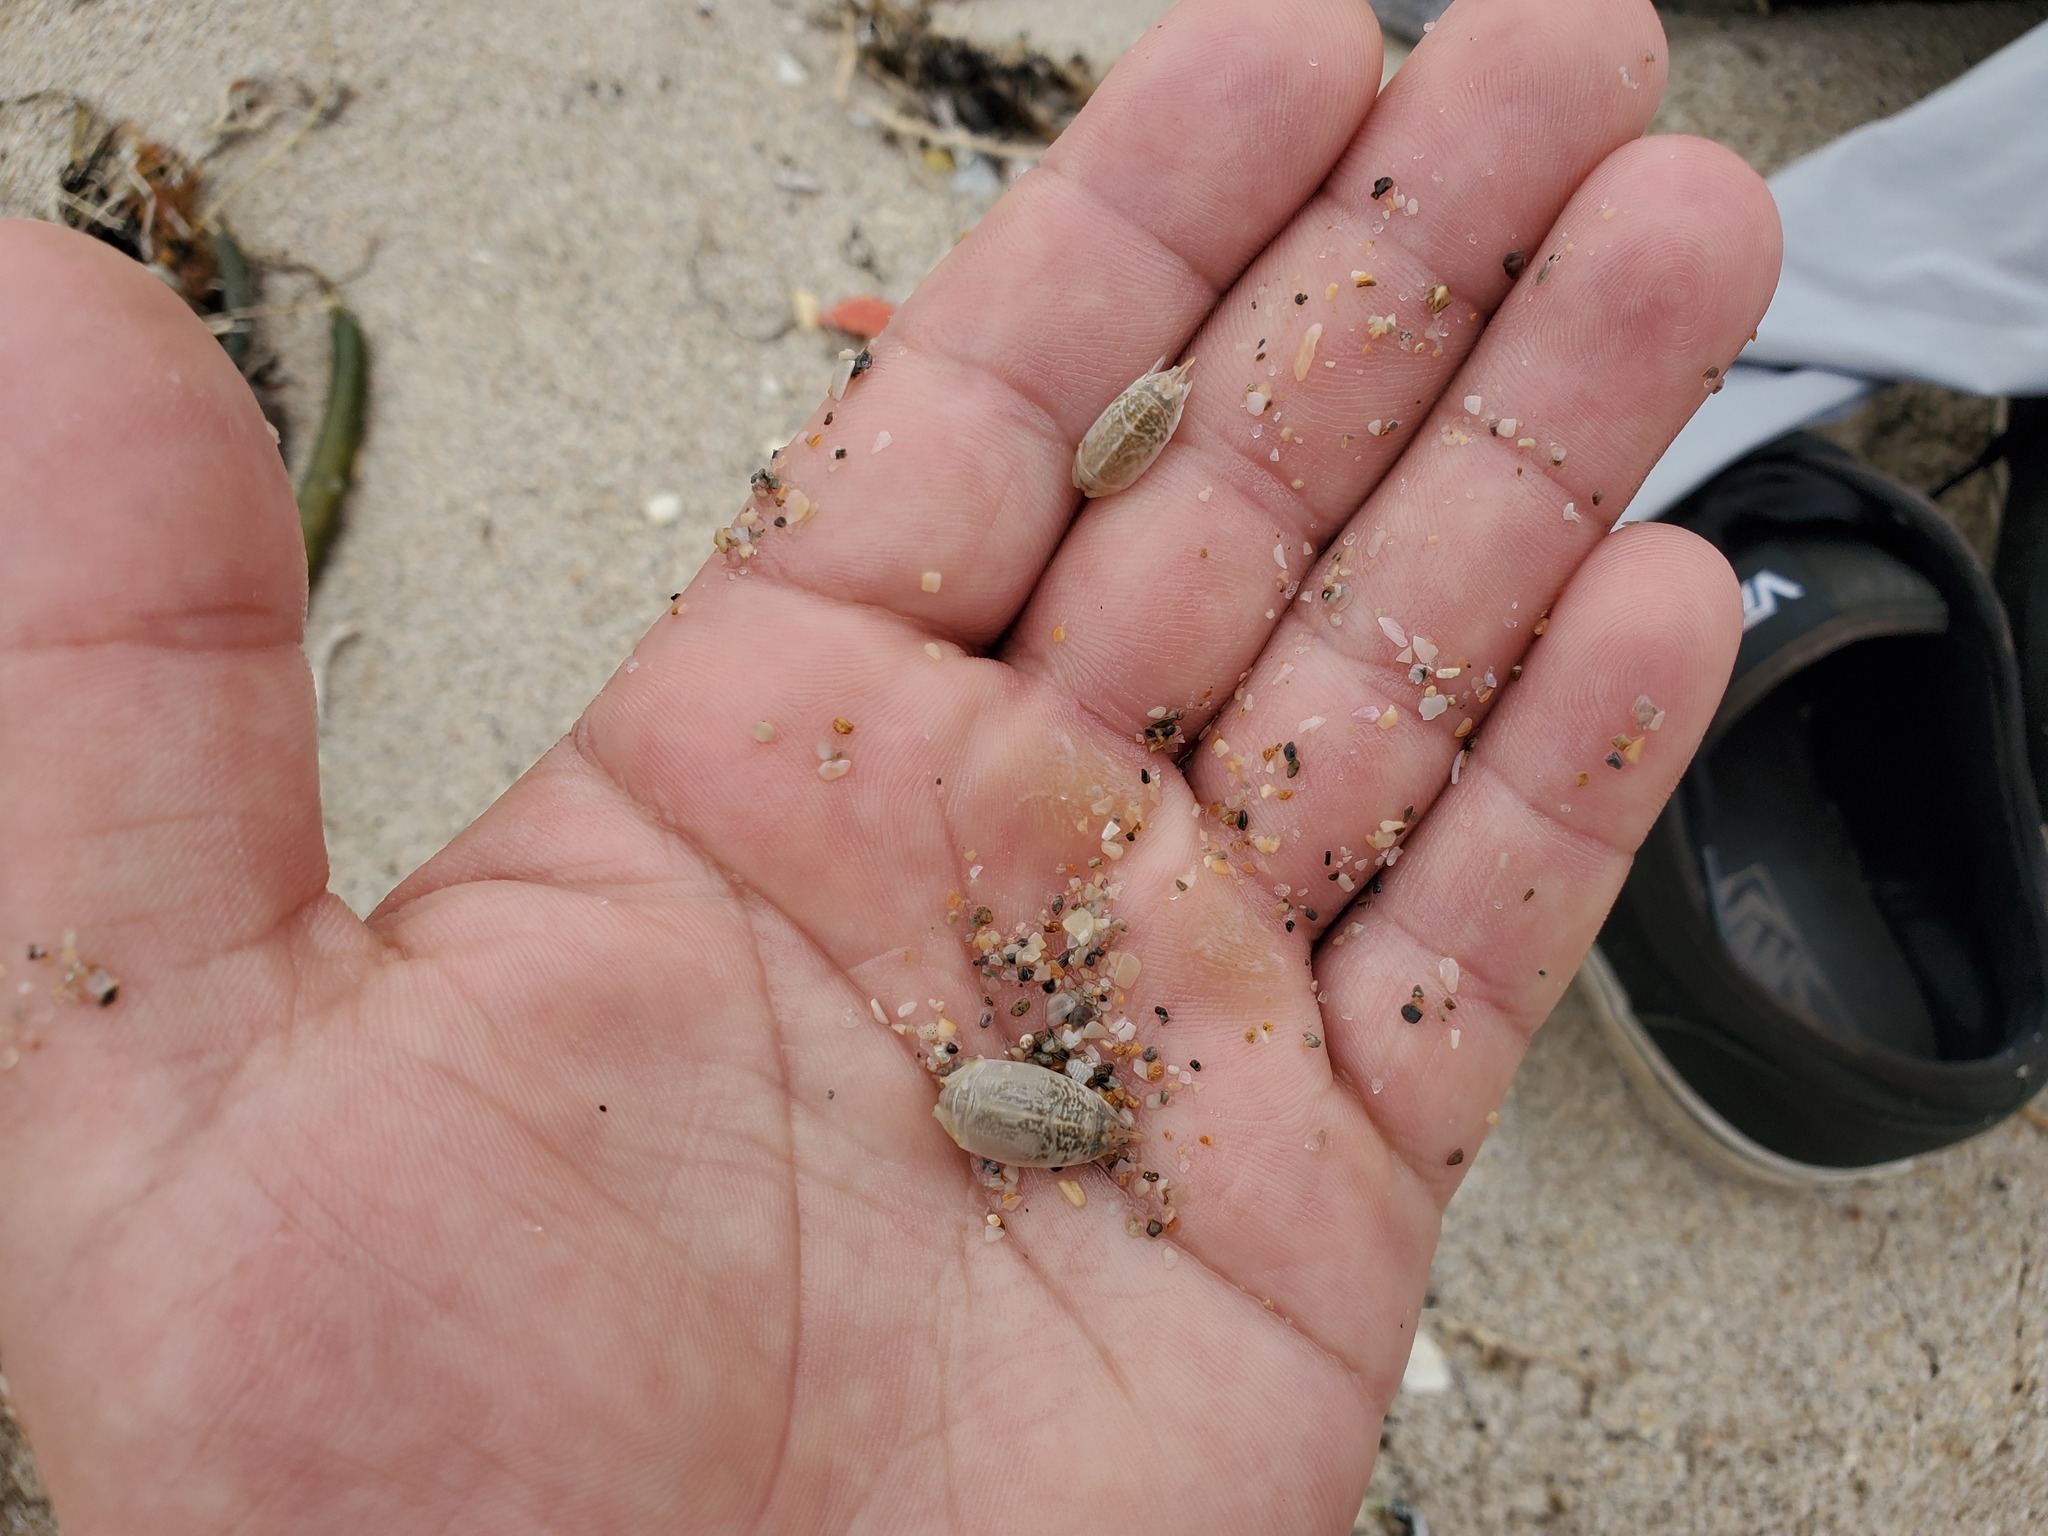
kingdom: Animalia
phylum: Arthropoda
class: Malacostraca
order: Decapoda
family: Hippidae
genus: Emerita
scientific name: Emerita talpoida
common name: Atlantic sand crab
